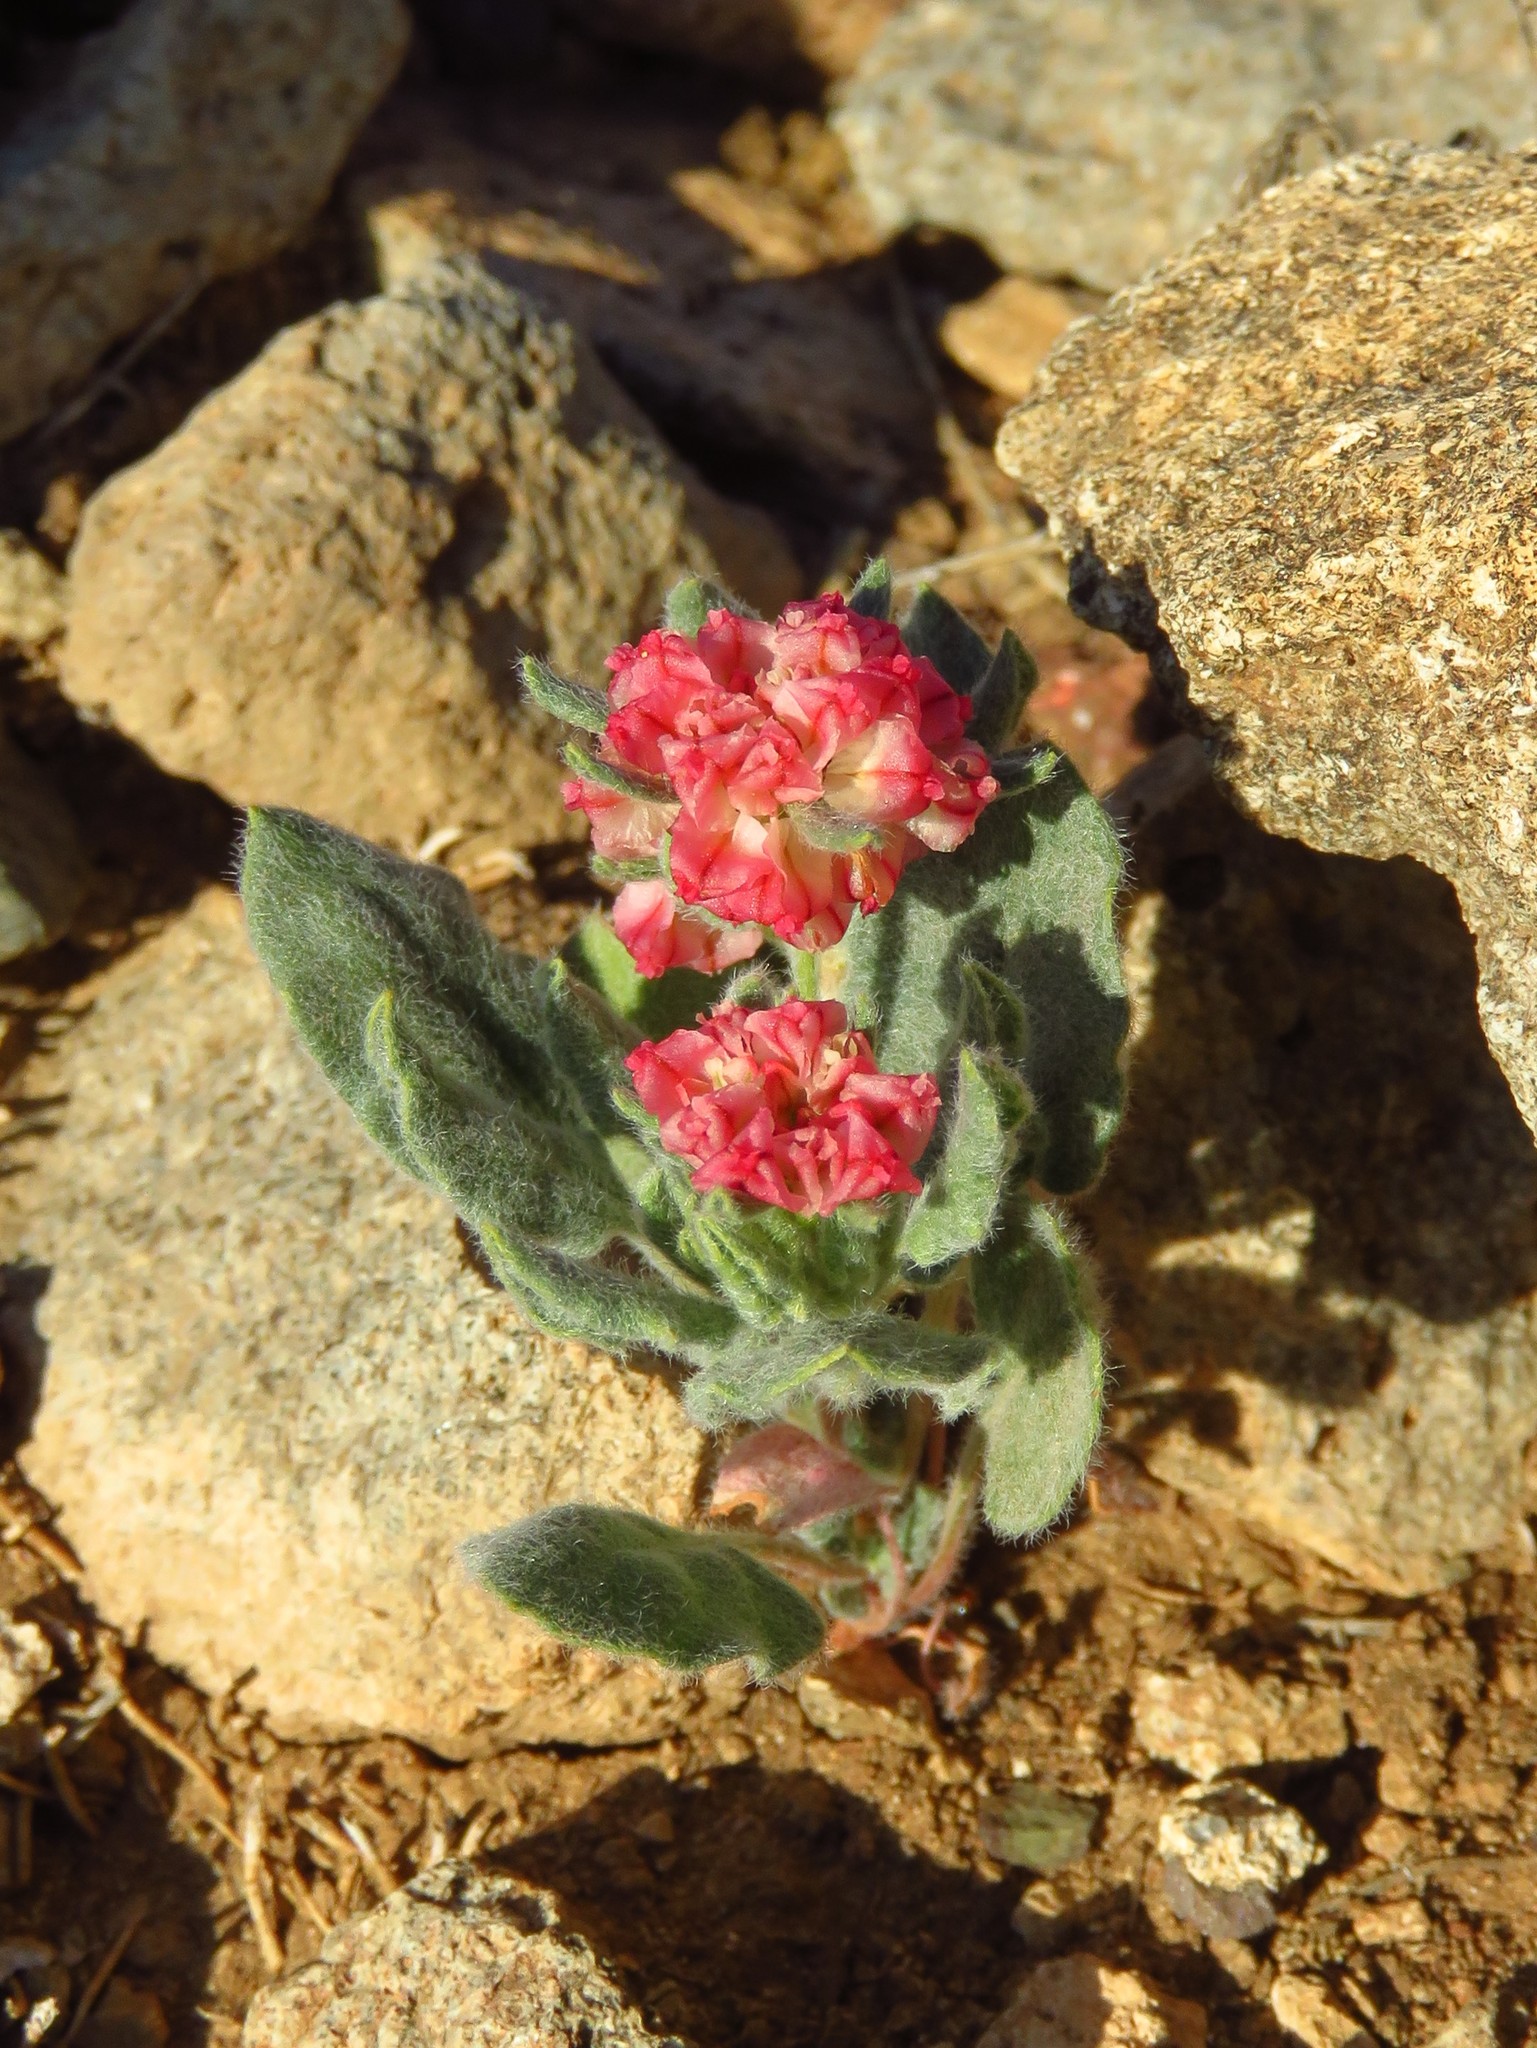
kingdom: Plantae
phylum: Tracheophyta
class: Magnoliopsida
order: Caryophyllales
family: Polygonaceae
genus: Eriogonum
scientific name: Eriogonum abertianum
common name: Abert's wild buckwheat
